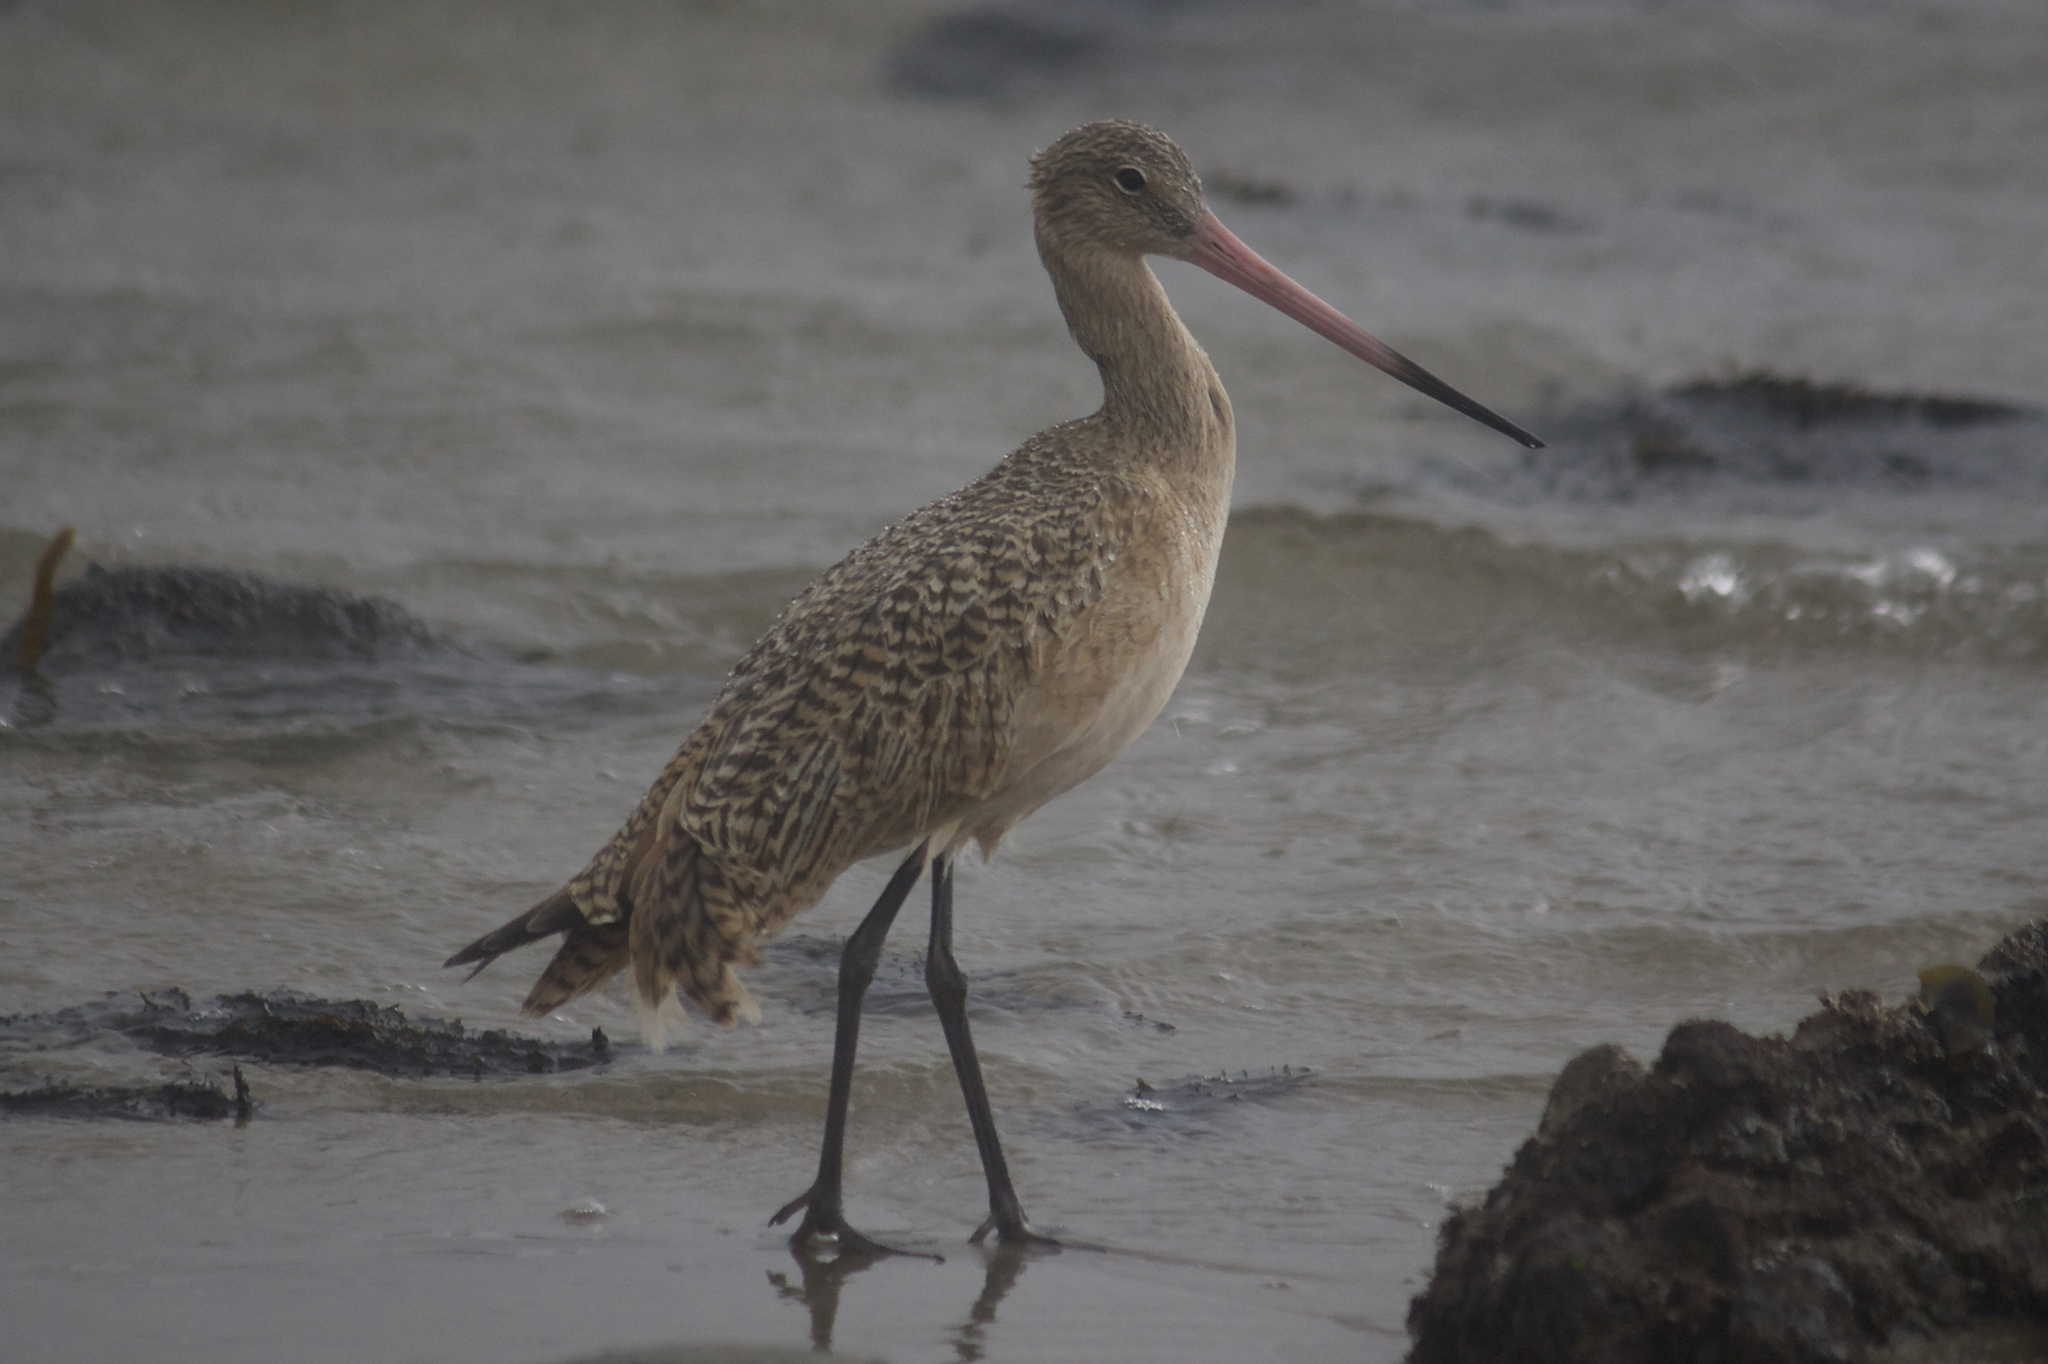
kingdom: Animalia
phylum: Chordata
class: Aves
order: Charadriiformes
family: Scolopacidae
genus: Limosa
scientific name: Limosa fedoa
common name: Marbled godwit
